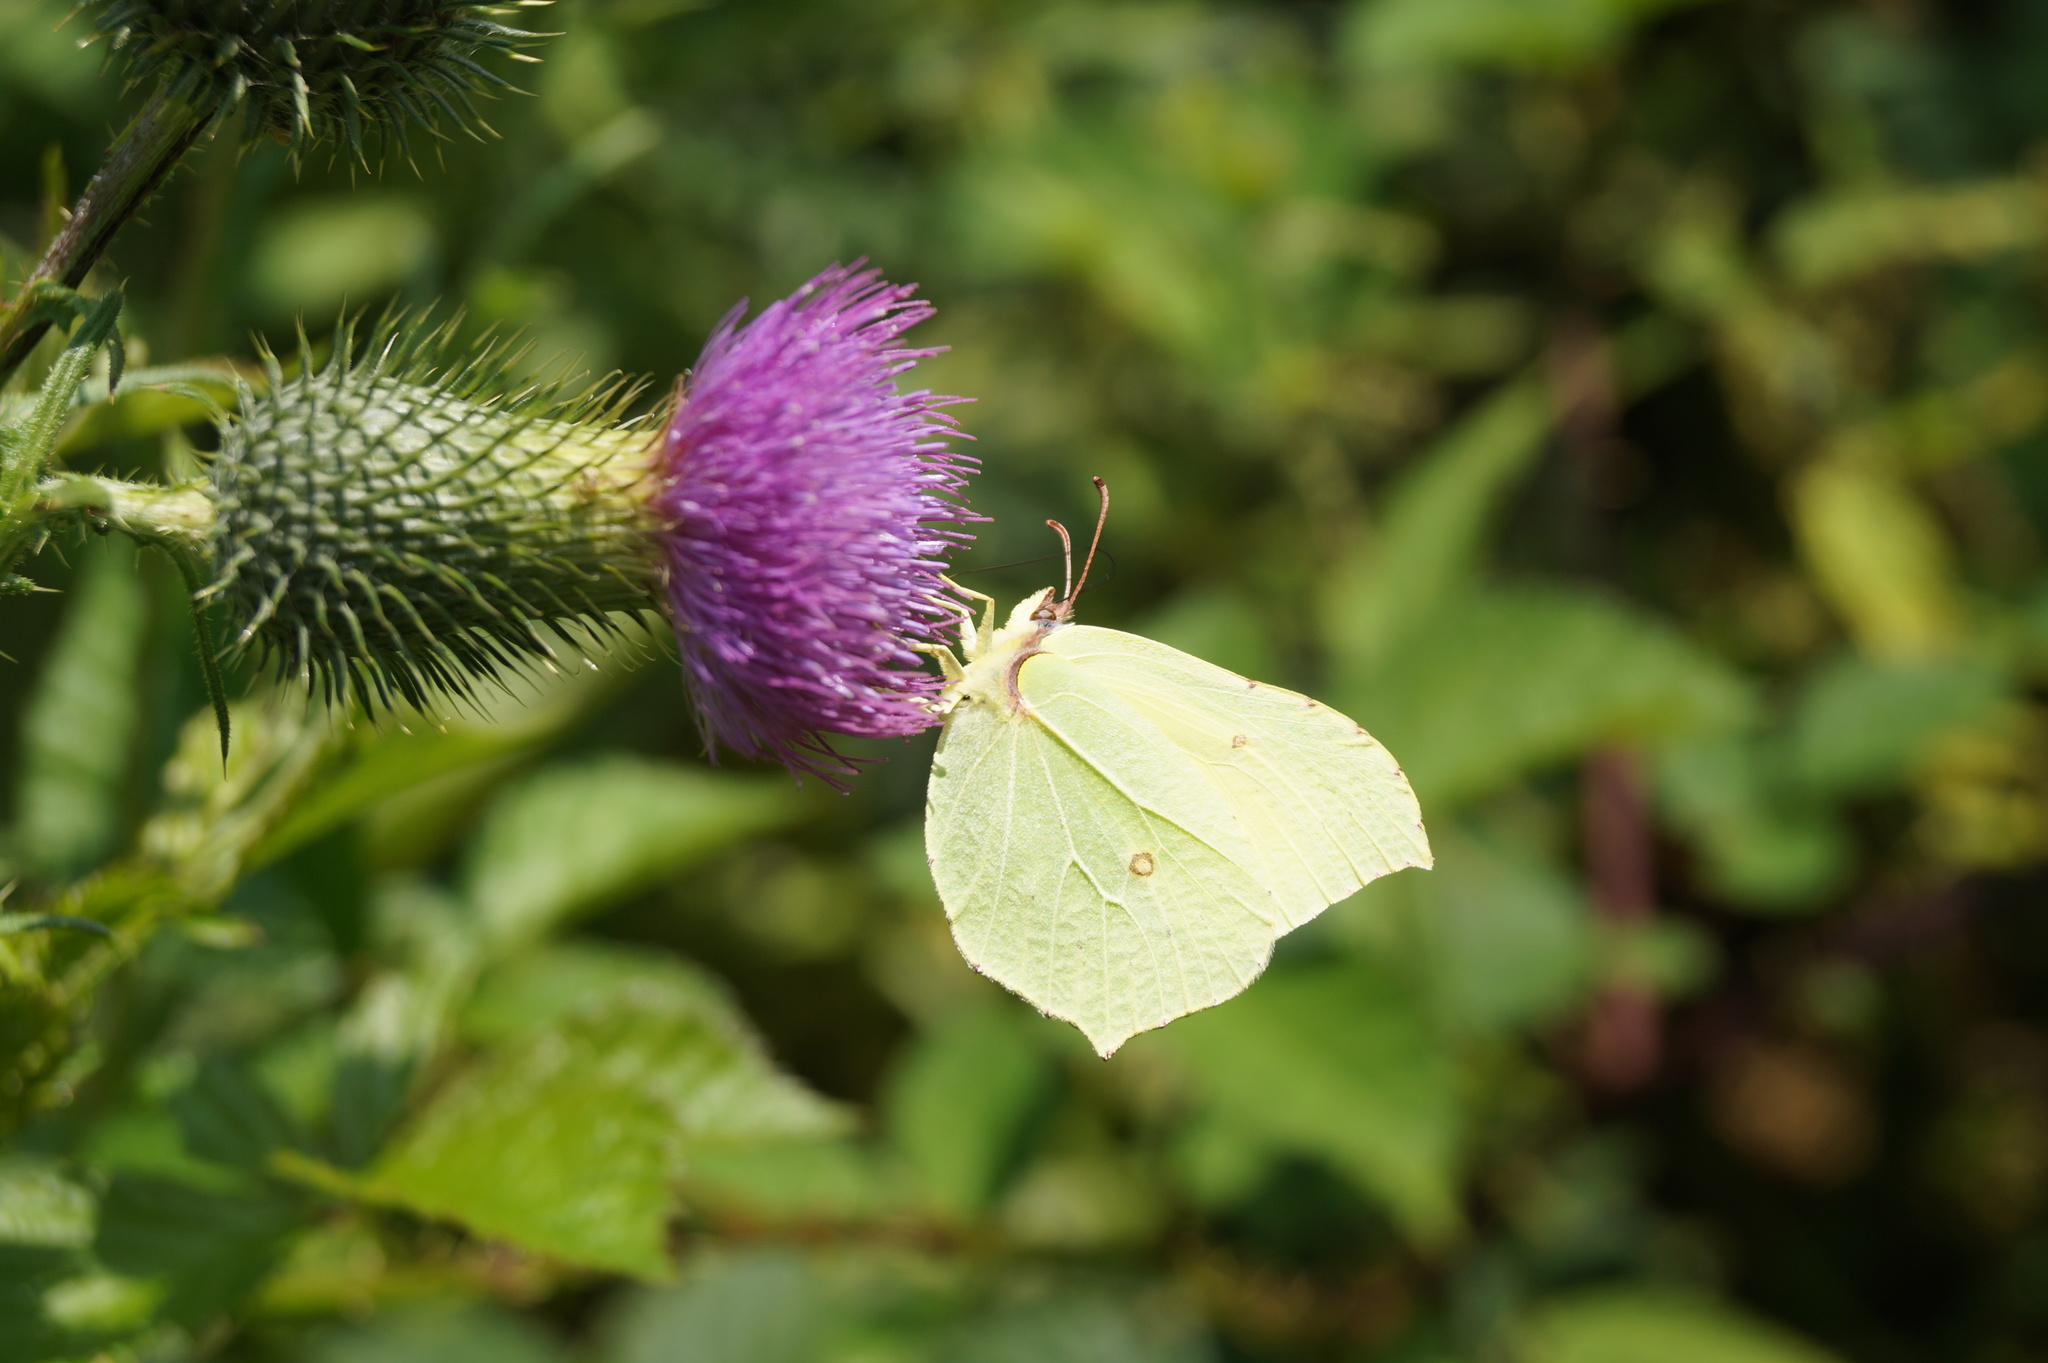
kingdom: Animalia
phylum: Arthropoda
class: Insecta
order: Lepidoptera
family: Pieridae
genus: Gonepteryx
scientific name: Gonepteryx rhamni
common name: Brimstone
